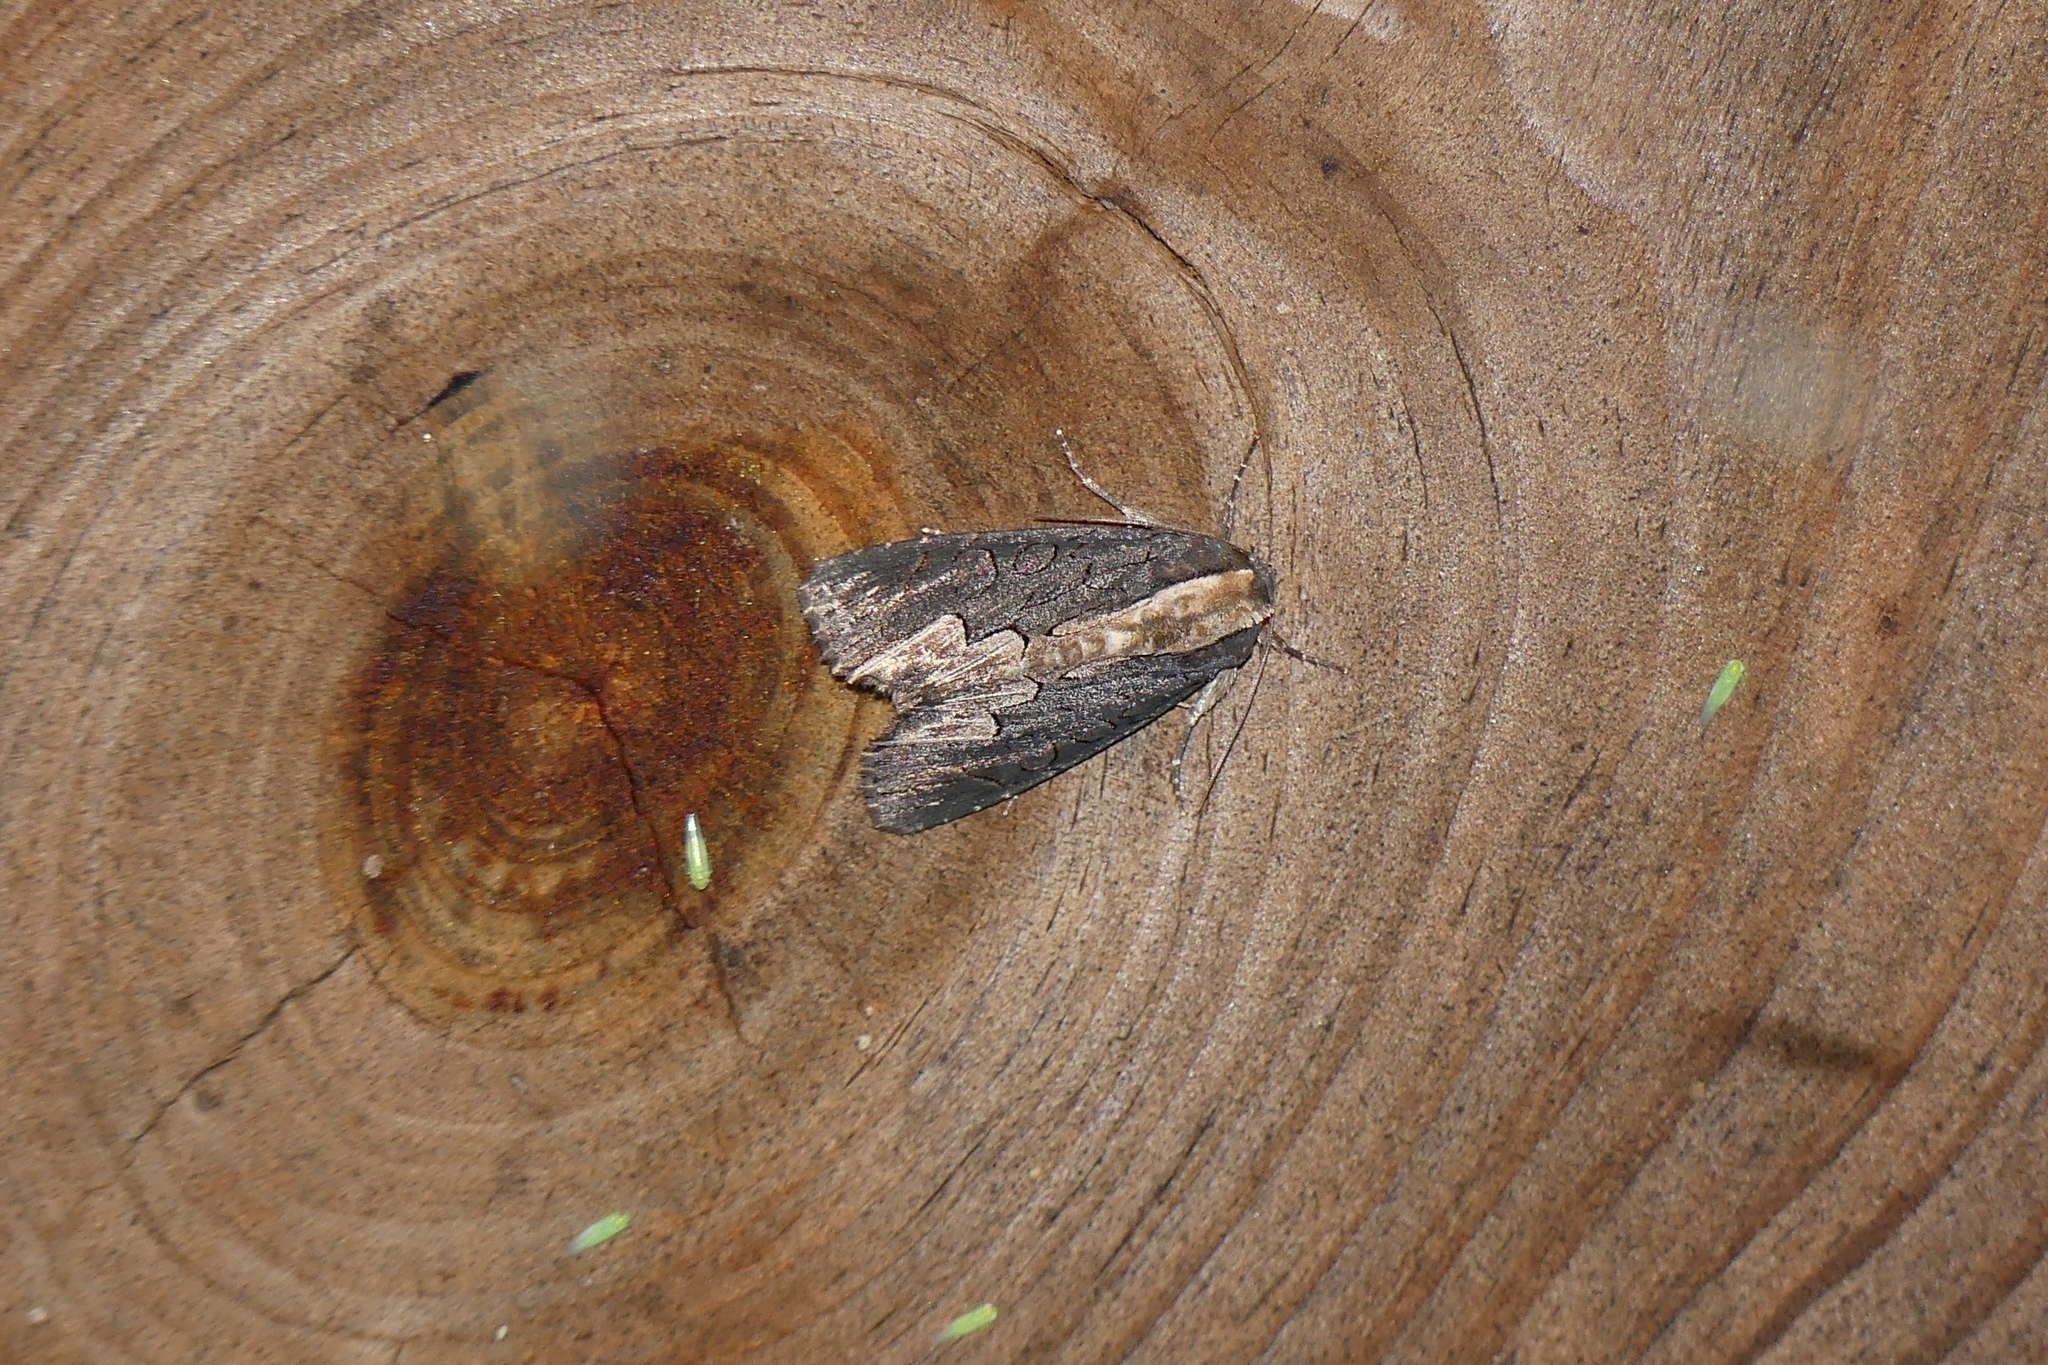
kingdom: Animalia
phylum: Arthropoda
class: Insecta
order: Lepidoptera
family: Noctuidae
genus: Dypterygia
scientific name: Dypterygia rozmani
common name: American bird's-wing
